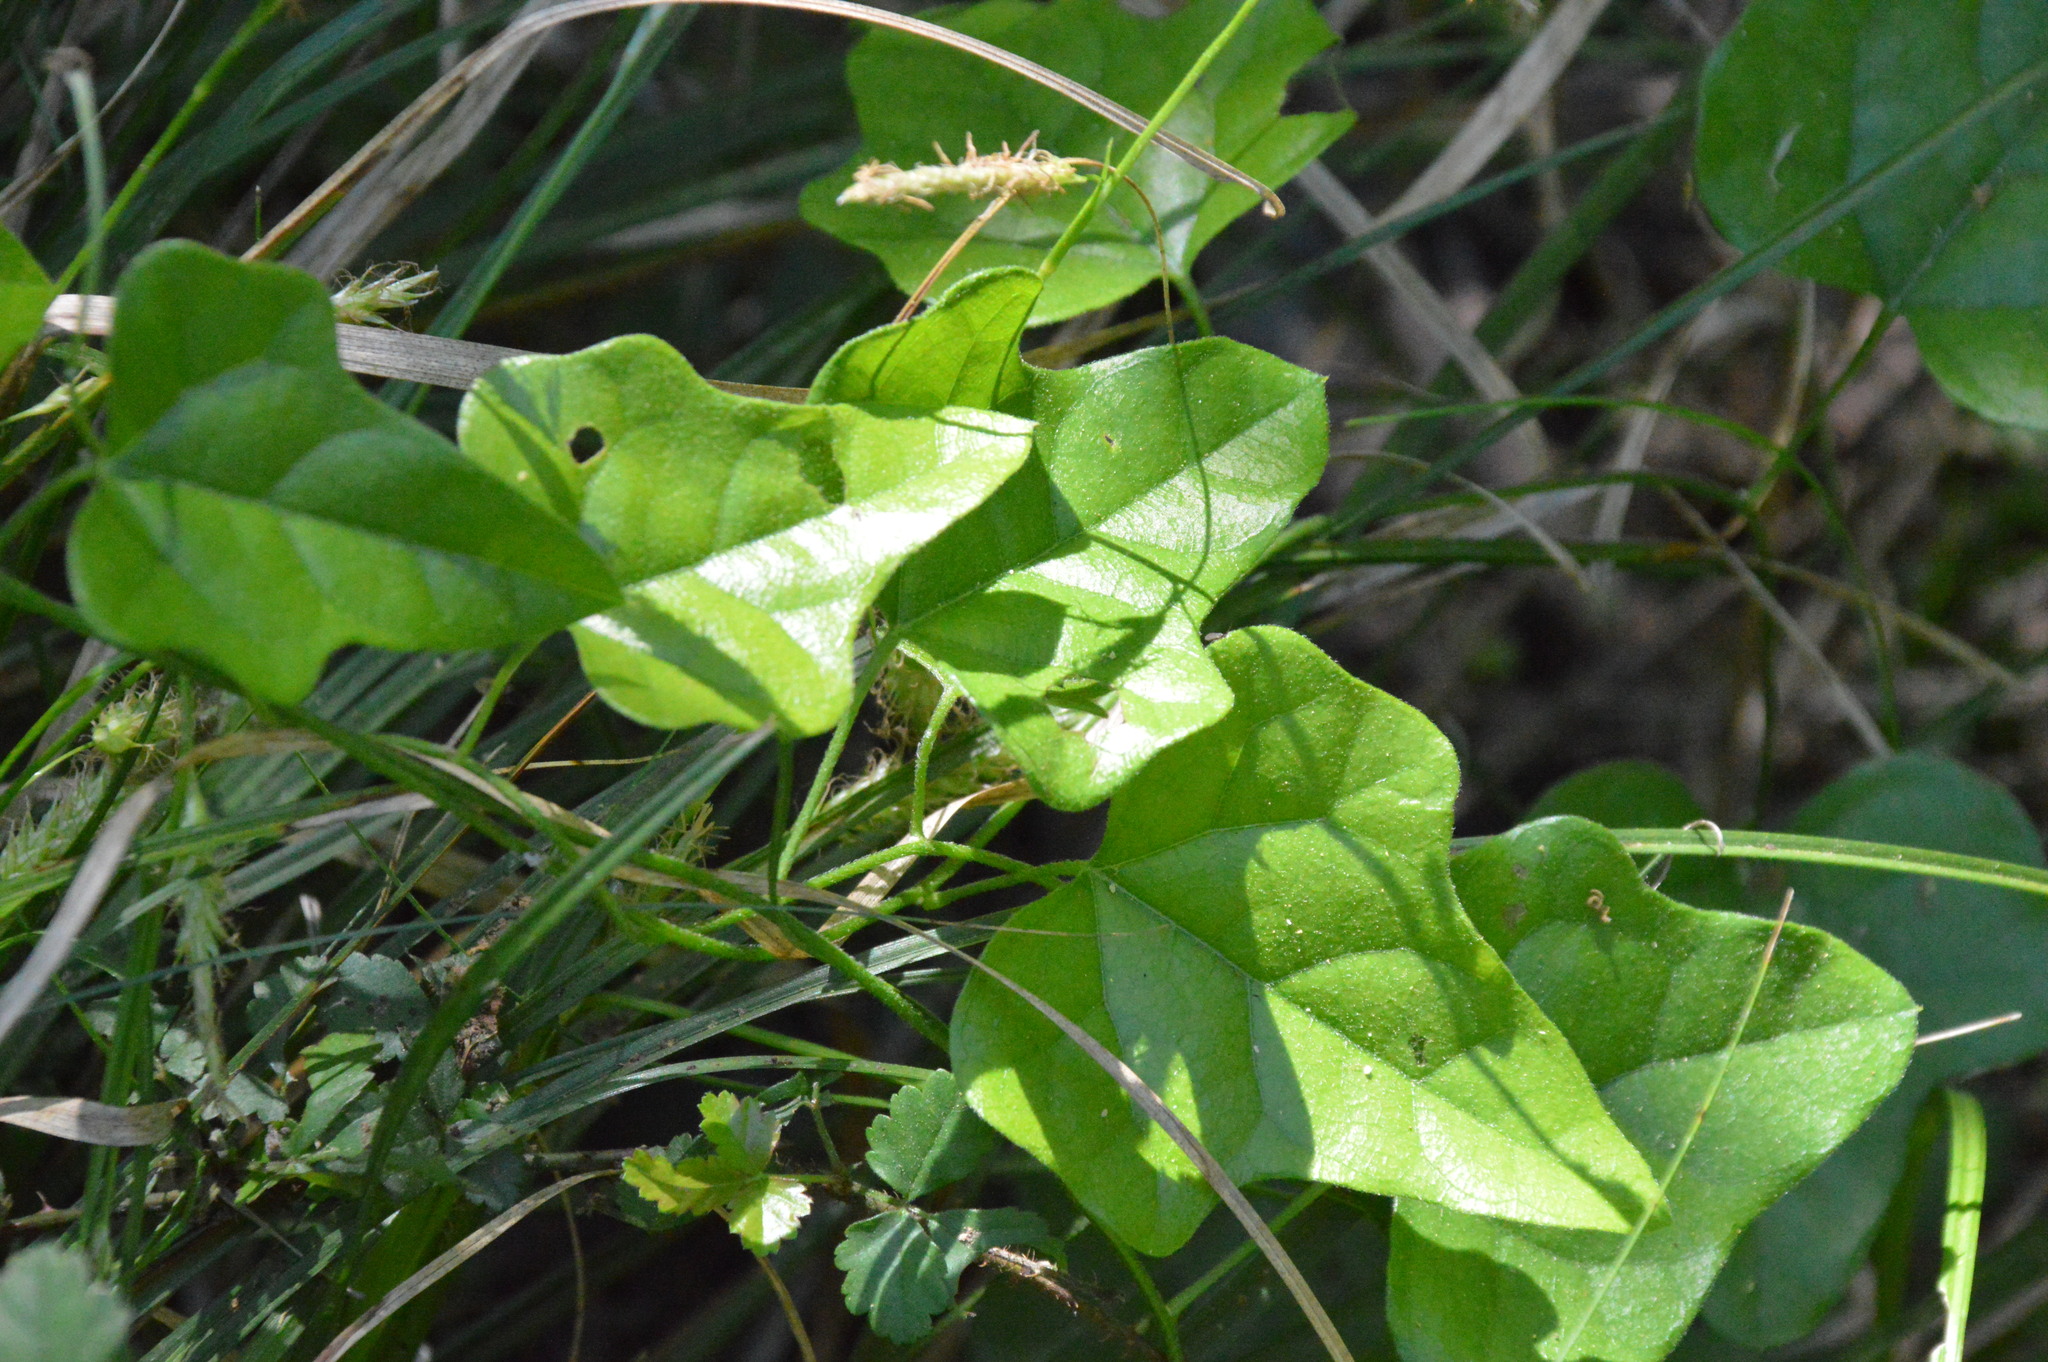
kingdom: Plantae
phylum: Tracheophyta
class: Magnoliopsida
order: Ranunculales
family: Menispermaceae
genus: Cocculus
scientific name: Cocculus carolinus
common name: Carolina moonseed
